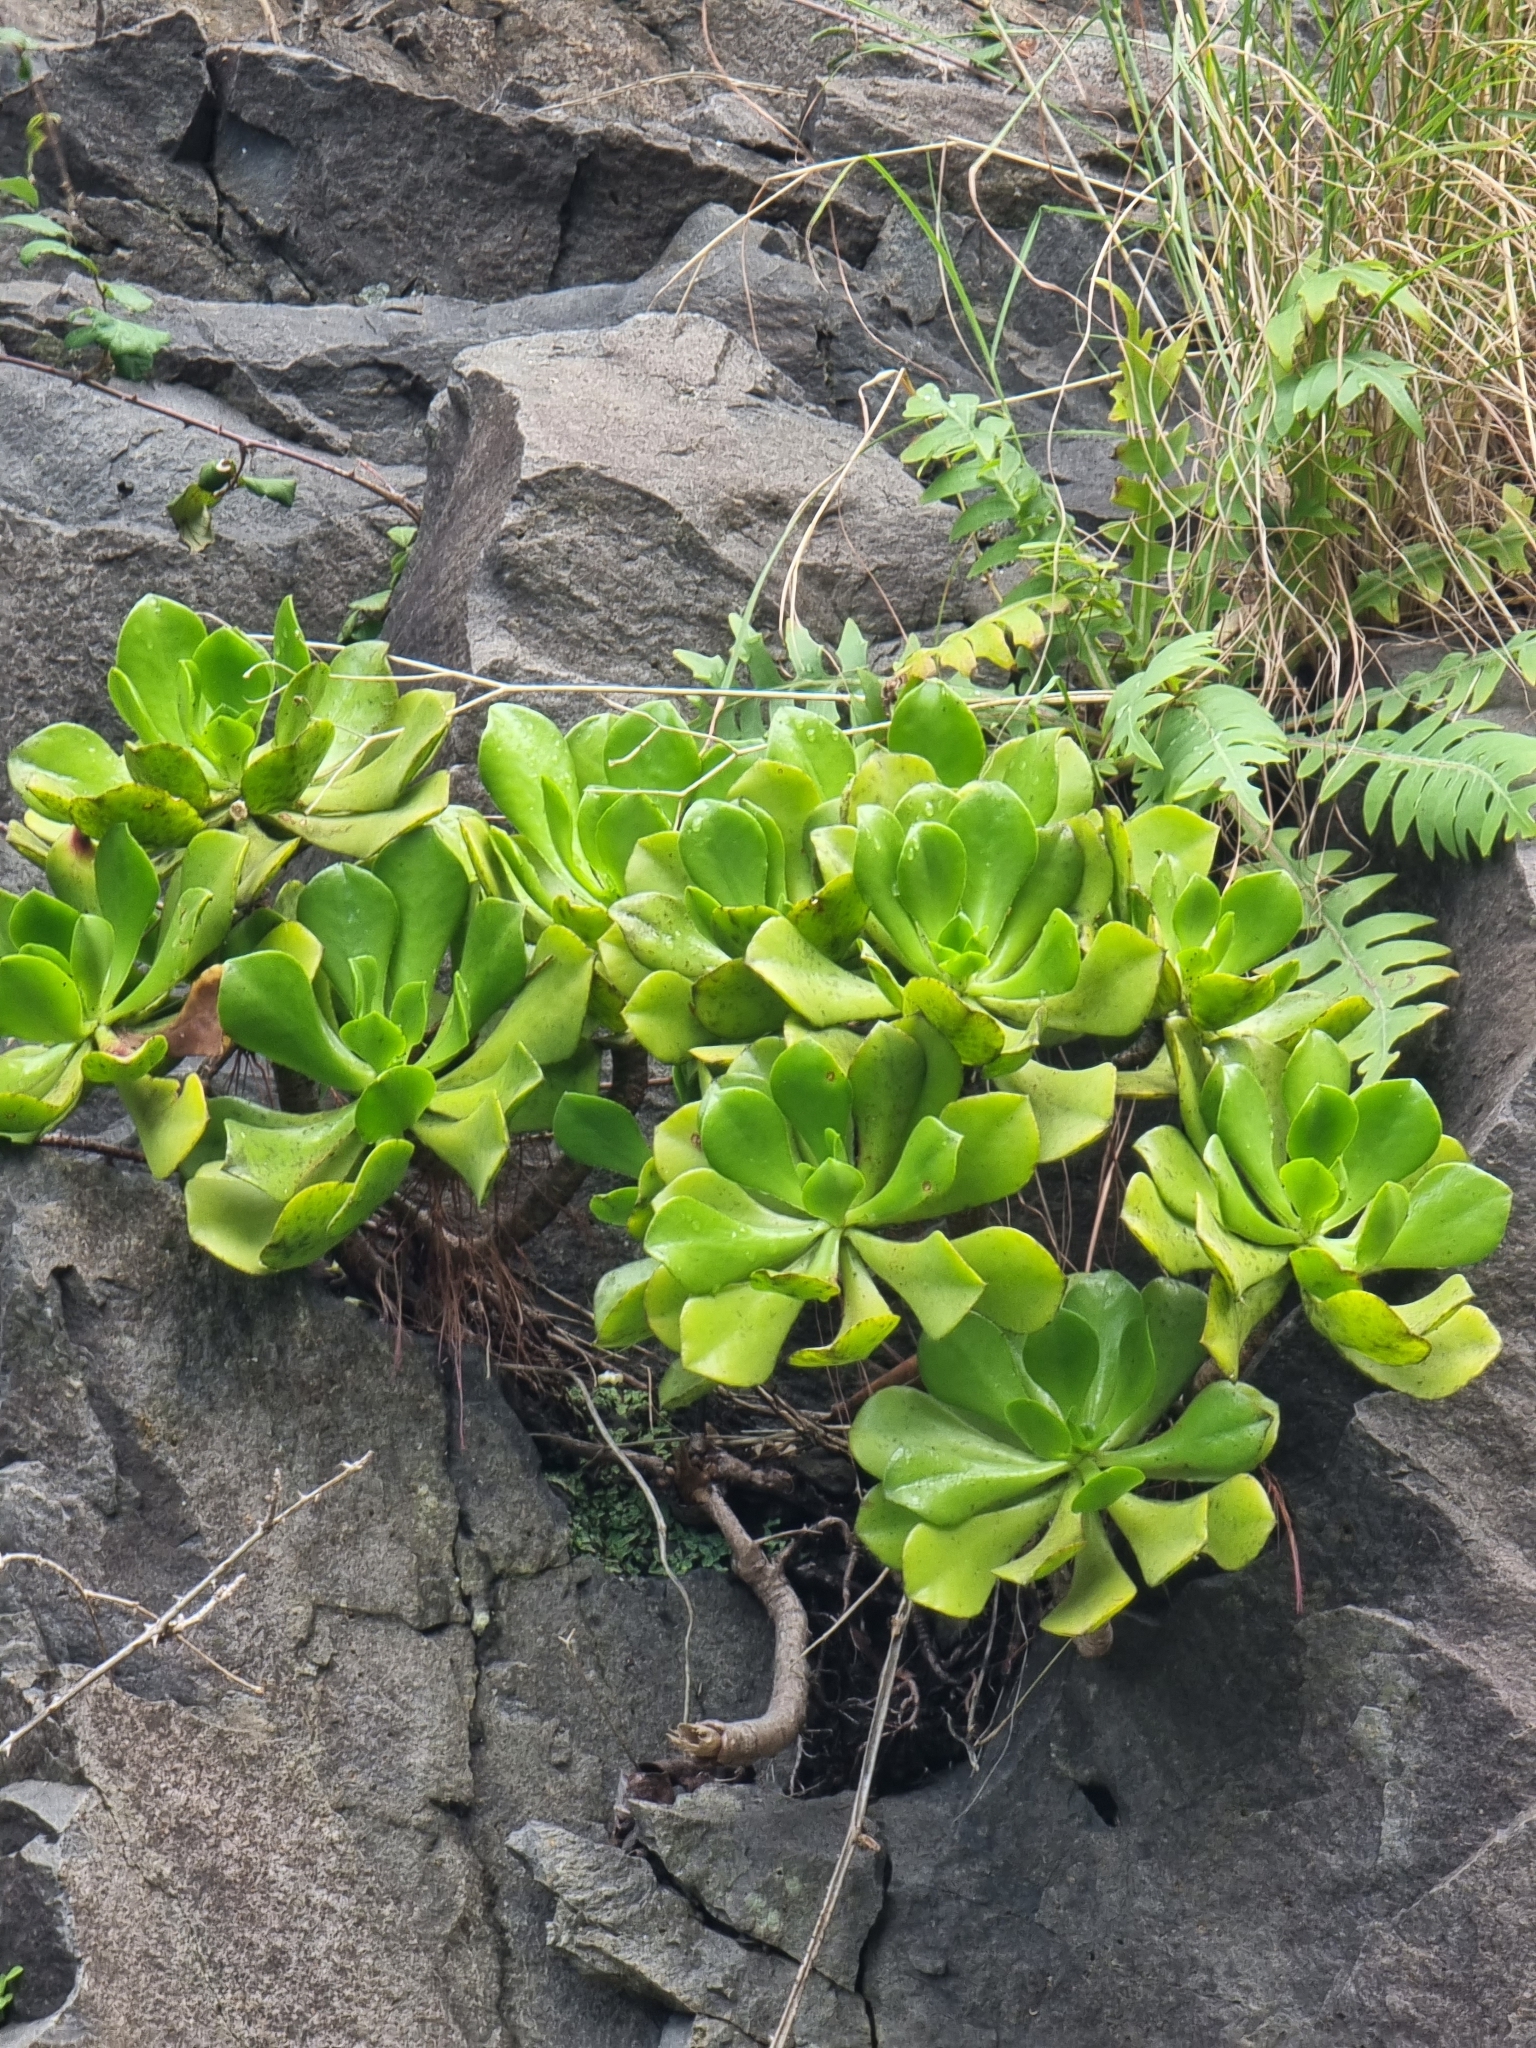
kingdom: Plantae
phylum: Tracheophyta
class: Magnoliopsida
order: Saxifragales
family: Crassulaceae
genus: Aeonium
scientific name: Aeonium glutinosum
